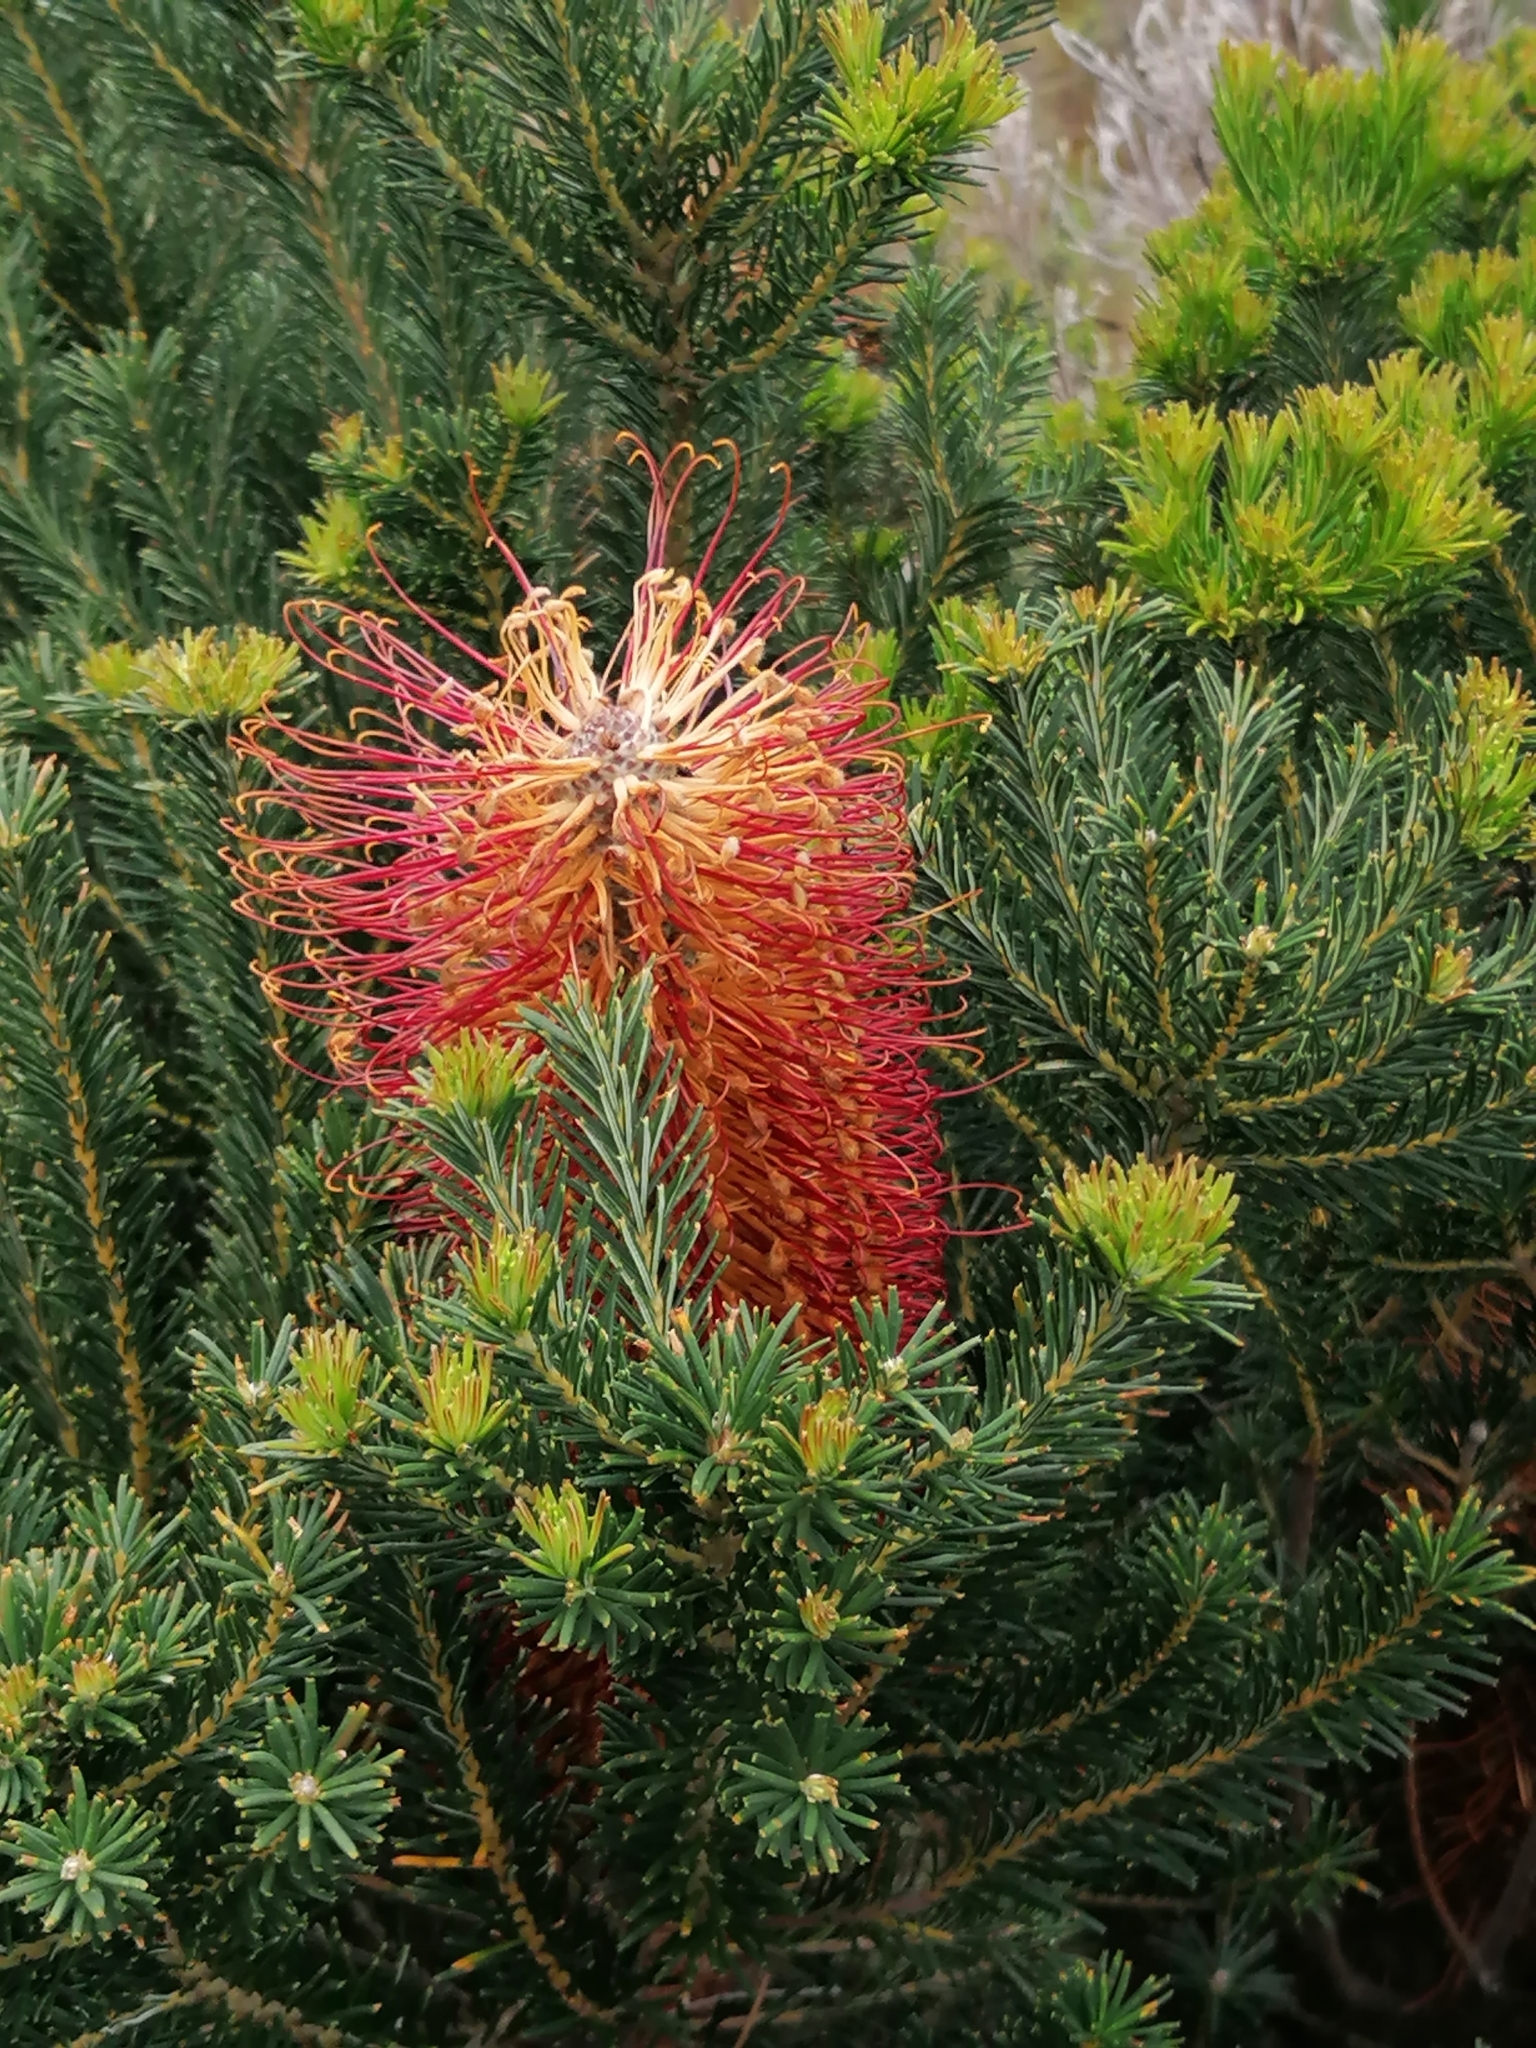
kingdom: Plantae
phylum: Tracheophyta
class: Magnoliopsida
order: Proteales
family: Proteaceae
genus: Banksia
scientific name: Banksia ericifolia
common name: Heath-leaf banksia
